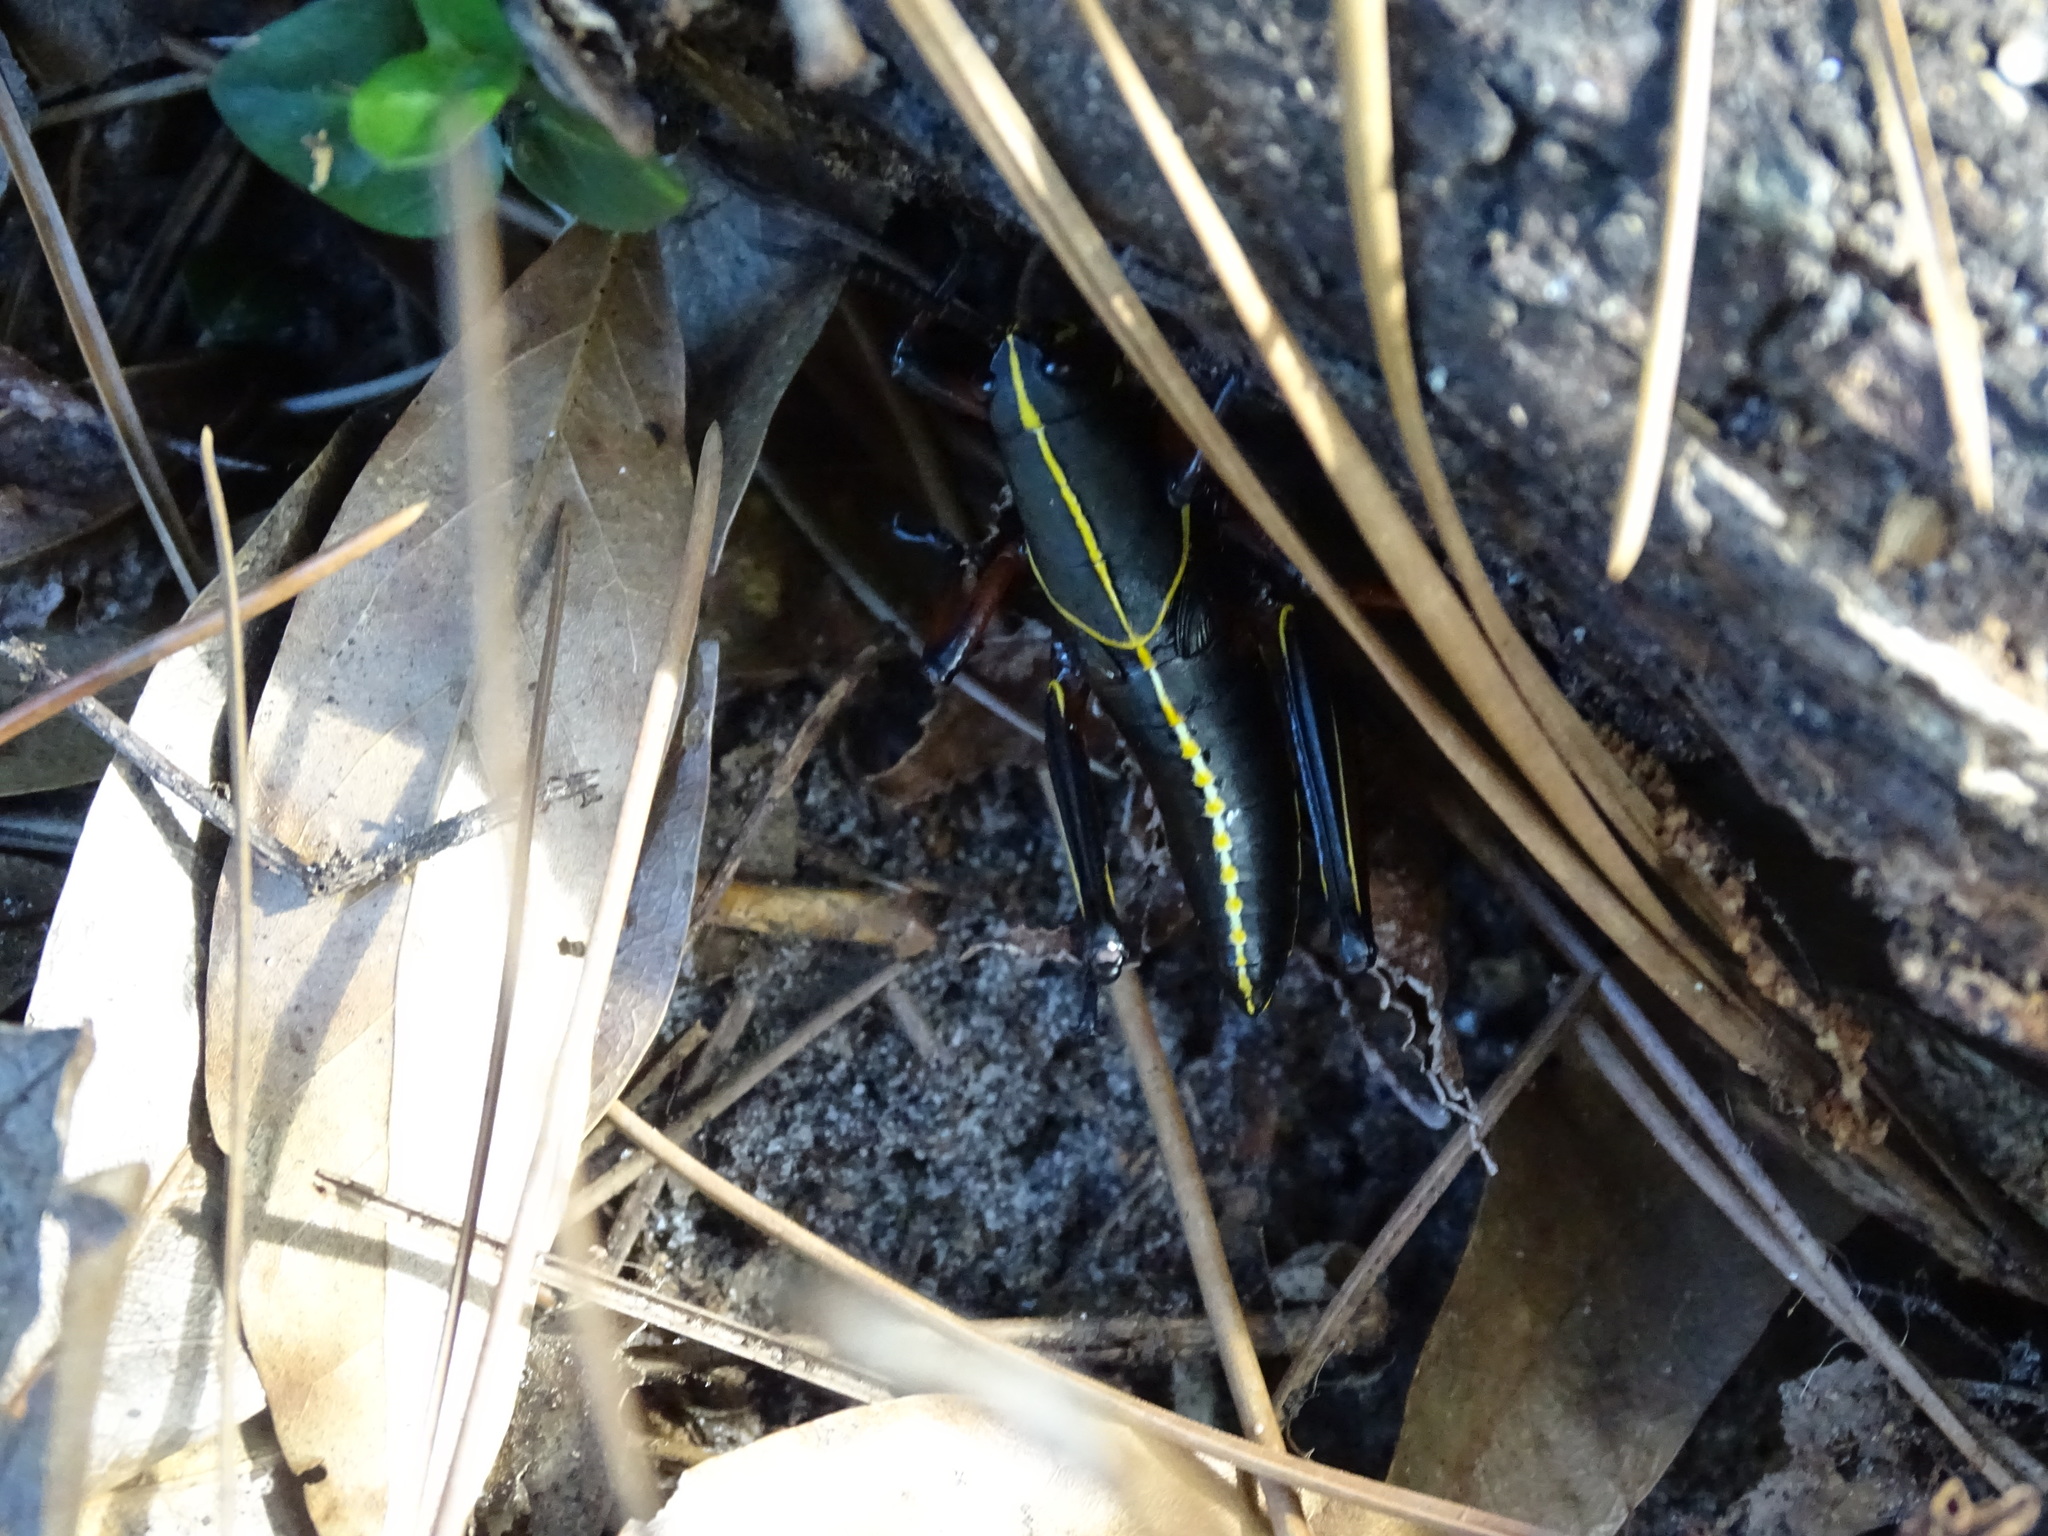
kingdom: Animalia
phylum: Arthropoda
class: Insecta
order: Orthoptera
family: Romaleidae
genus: Romalea
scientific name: Romalea microptera
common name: Eastern lubber grasshopper
